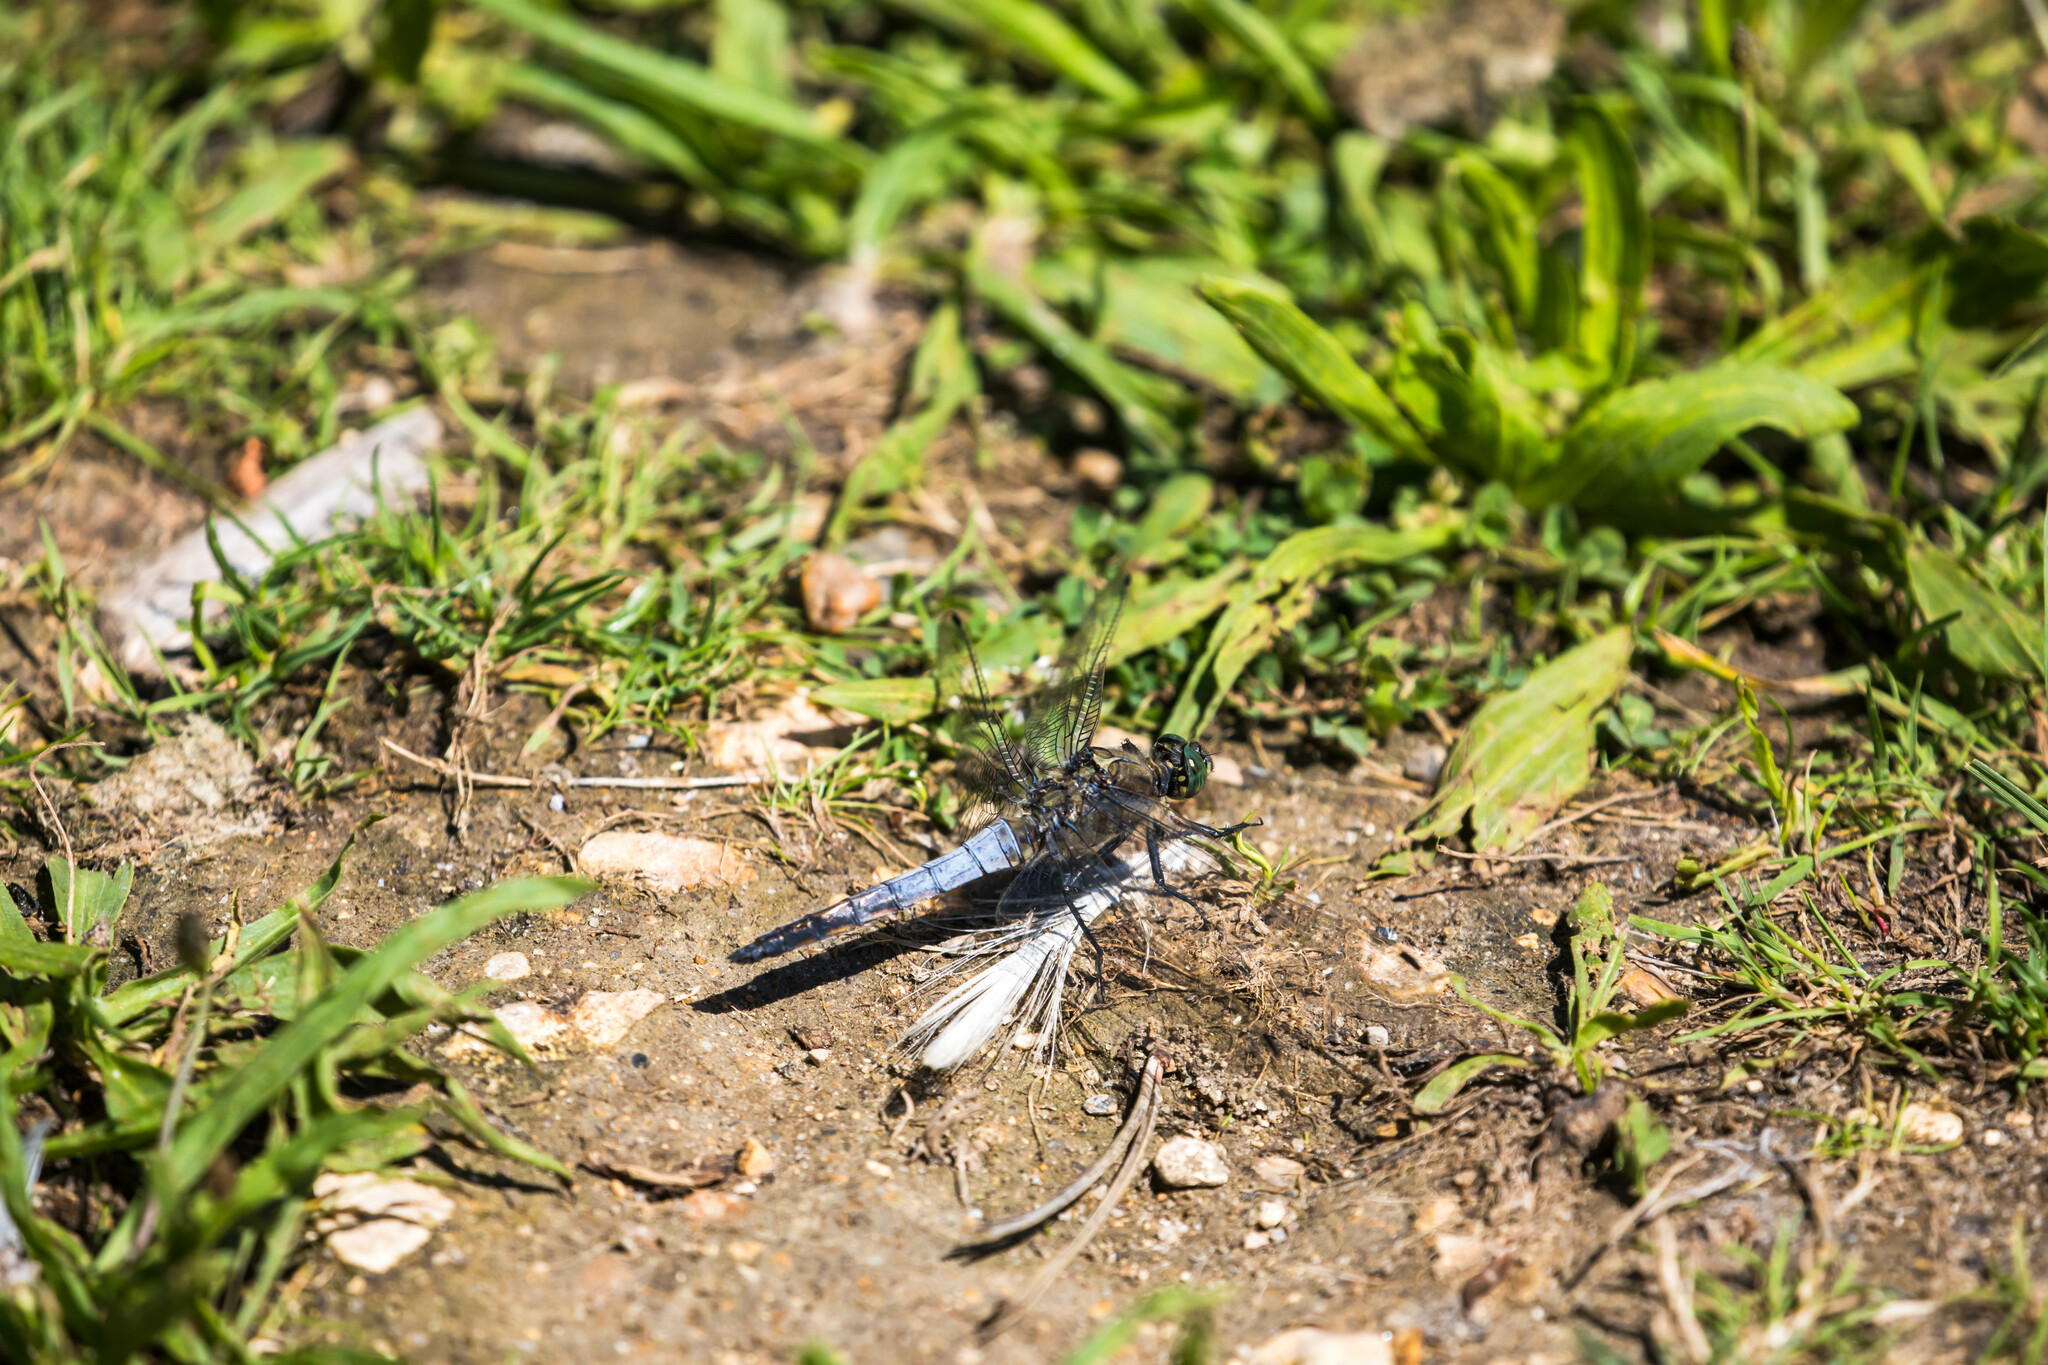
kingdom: Animalia
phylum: Arthropoda
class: Insecta
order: Odonata
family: Libellulidae
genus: Orthetrum
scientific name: Orthetrum cancellatum
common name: Black-tailed skimmer
